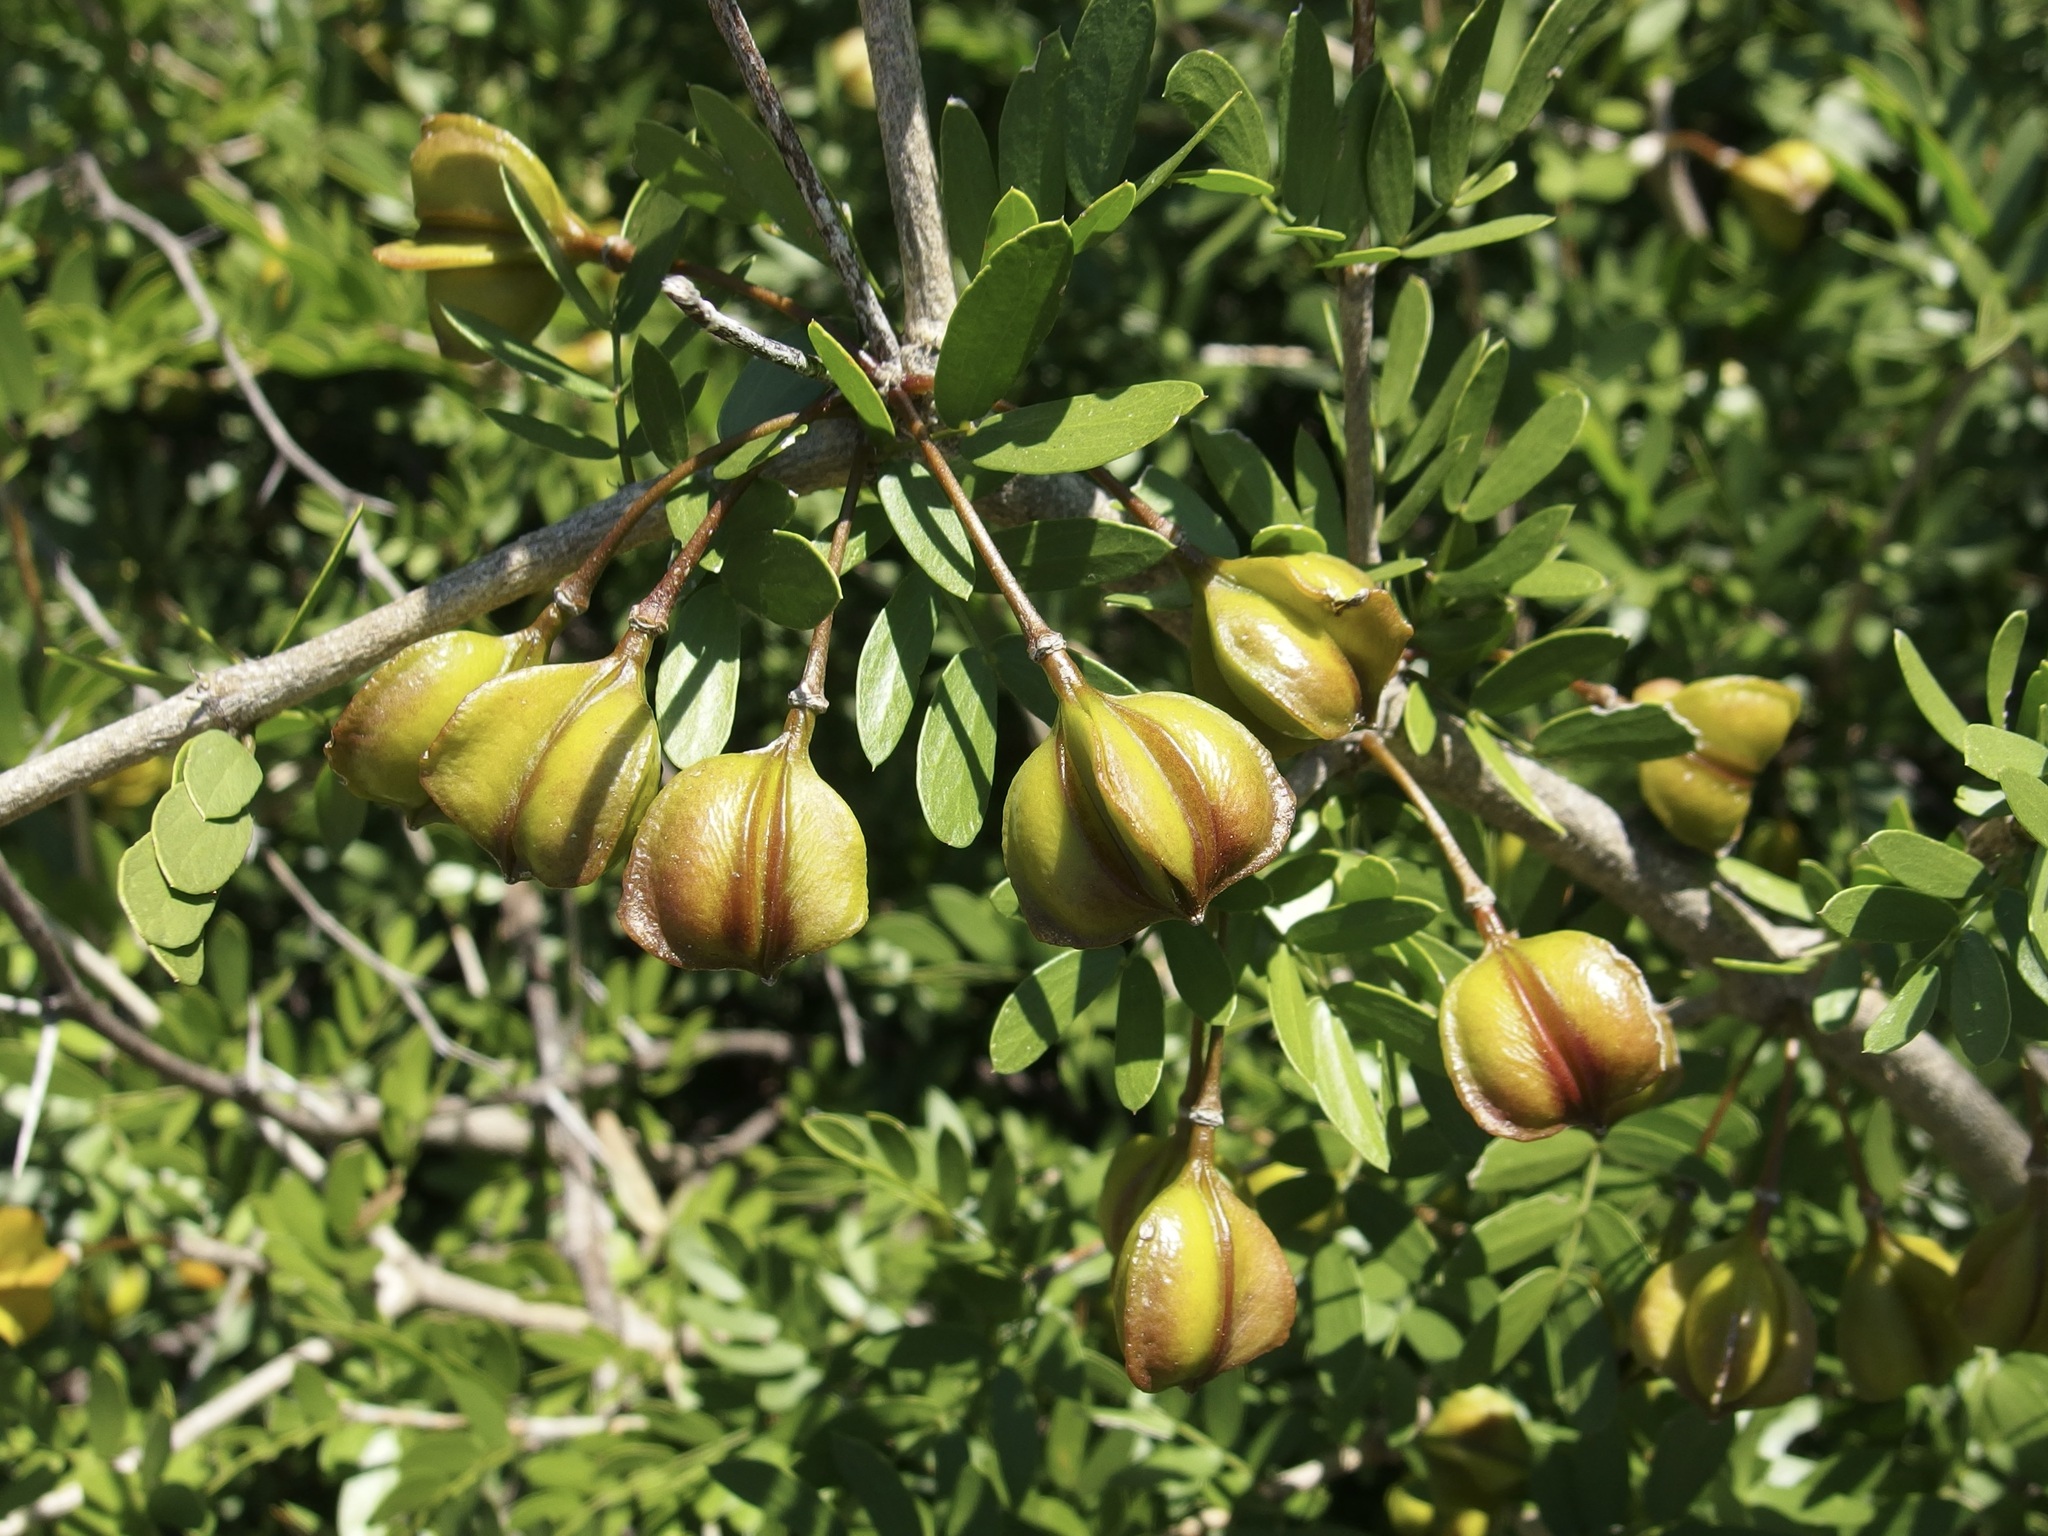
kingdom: Plantae
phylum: Tracheophyta
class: Magnoliopsida
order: Zygophyllales
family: Zygophyllaceae
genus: Guaiacum
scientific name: Guaiacum coulteri
